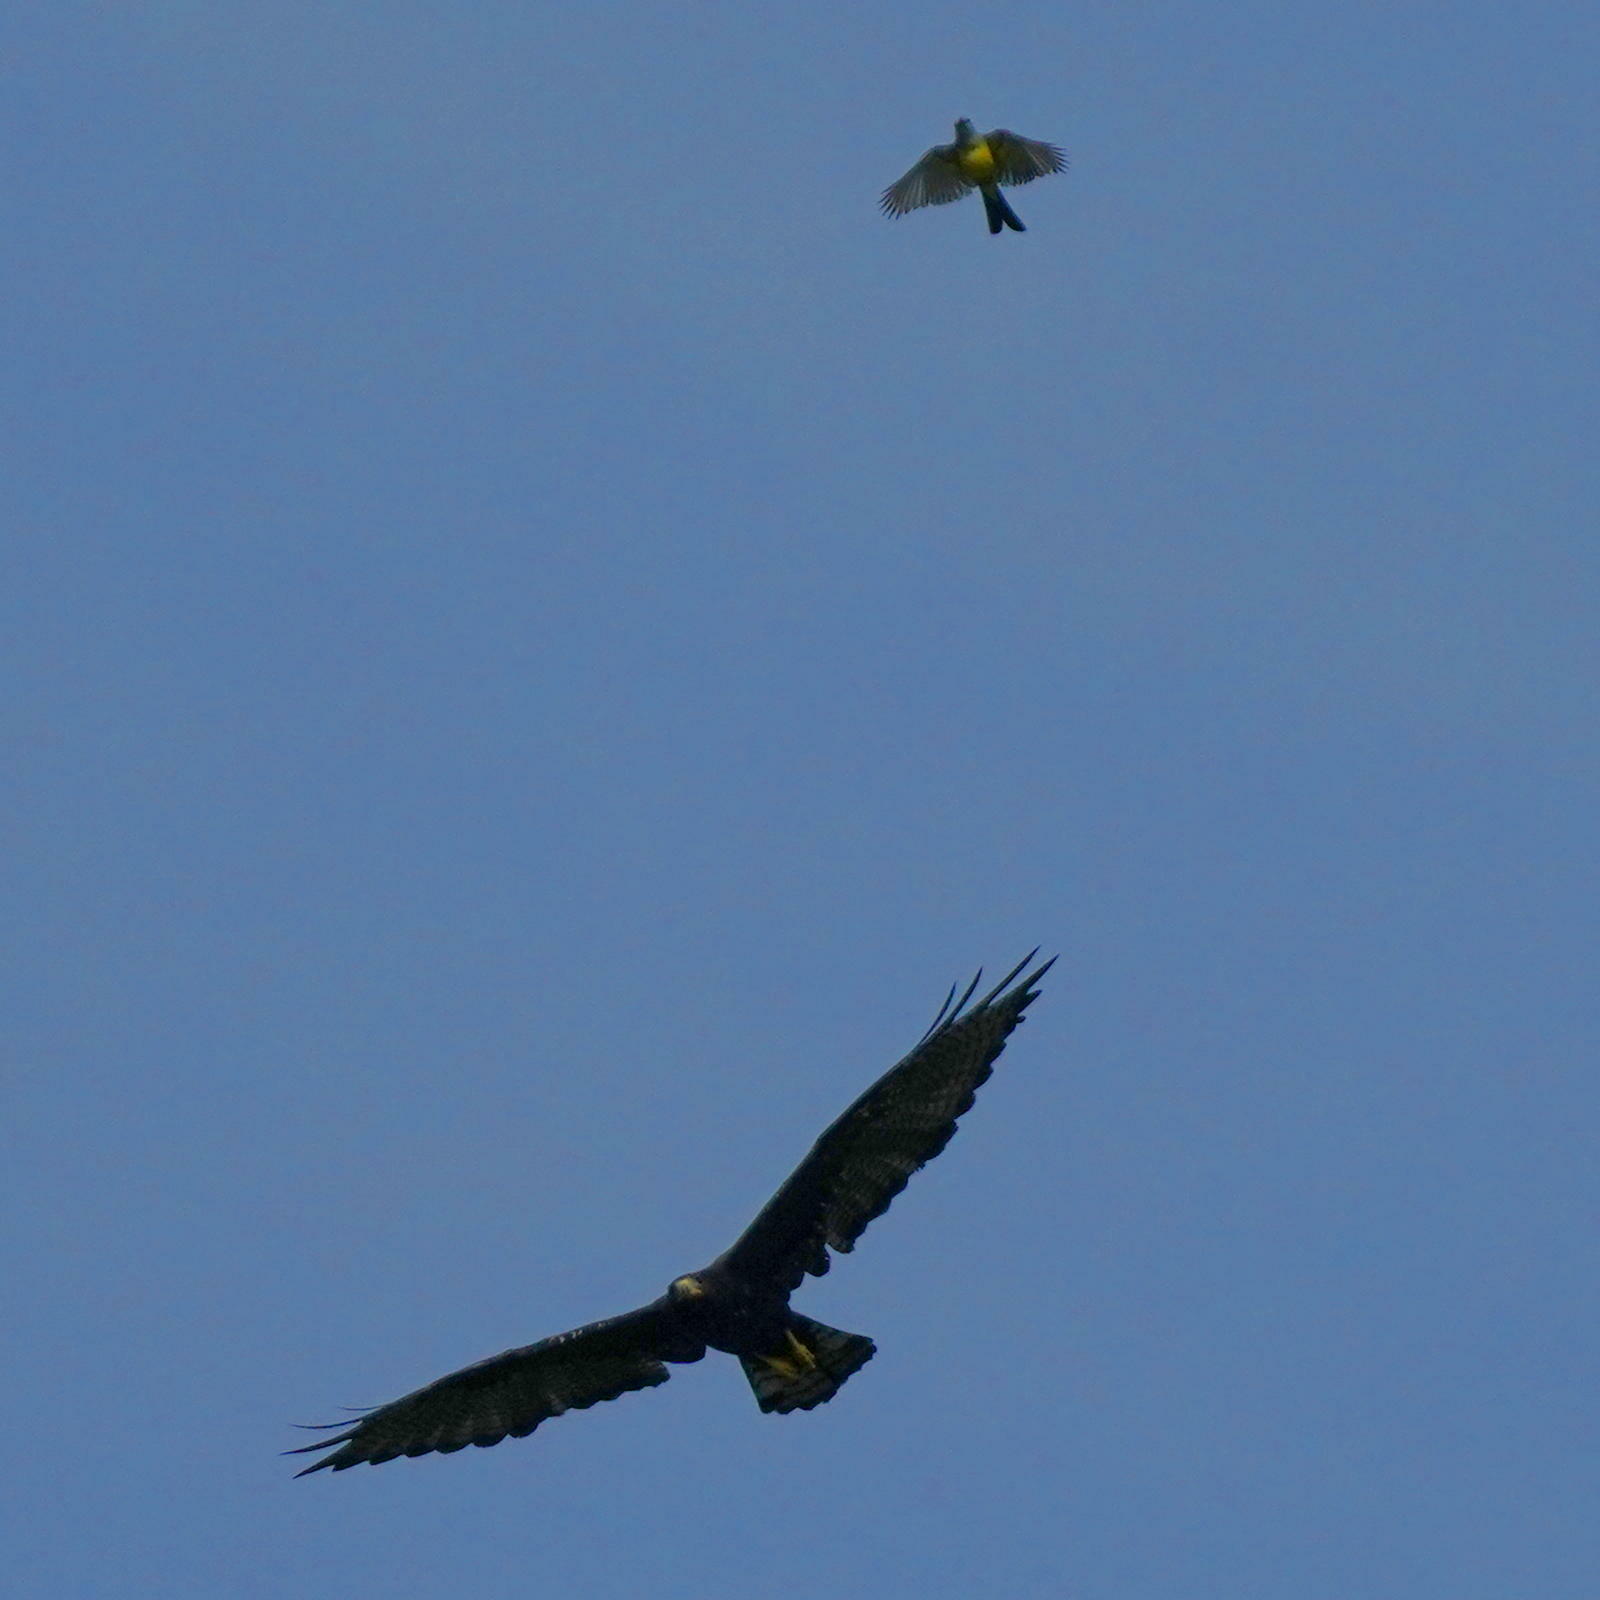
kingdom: Animalia
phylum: Chordata
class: Aves
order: Passeriformes
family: Tyrannidae
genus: Tyrannus
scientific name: Tyrannus melancholicus
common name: Tropical kingbird
